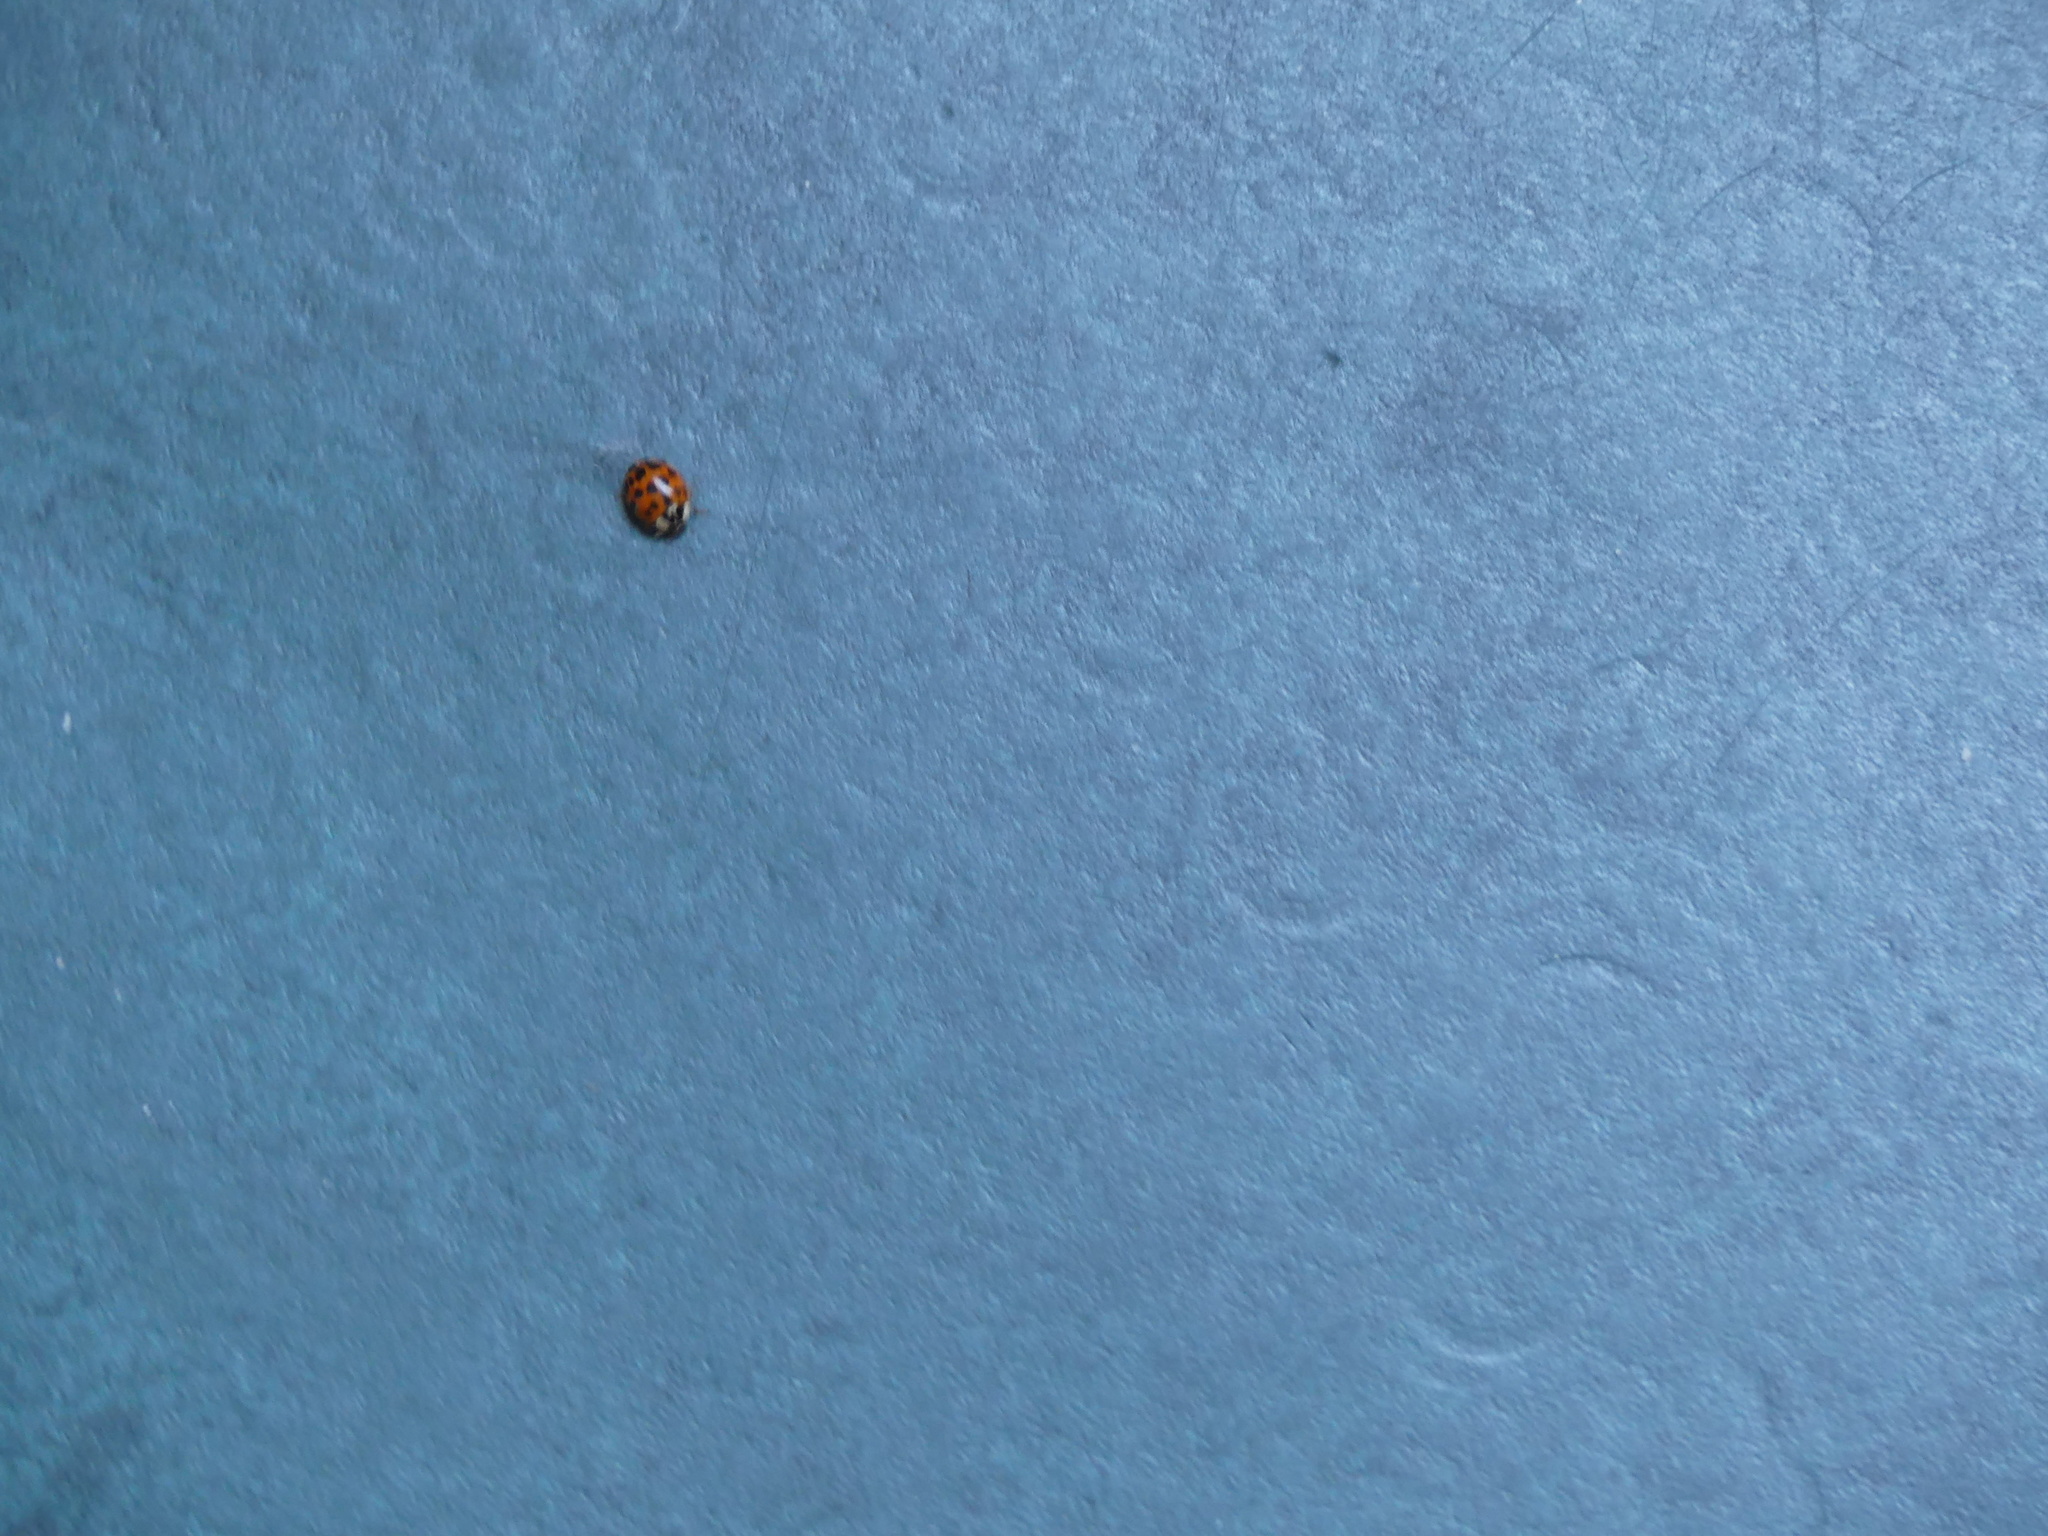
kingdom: Animalia
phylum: Arthropoda
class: Insecta
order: Coleoptera
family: Coccinellidae
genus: Harmonia
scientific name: Harmonia axyridis
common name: Harlequin ladybird
